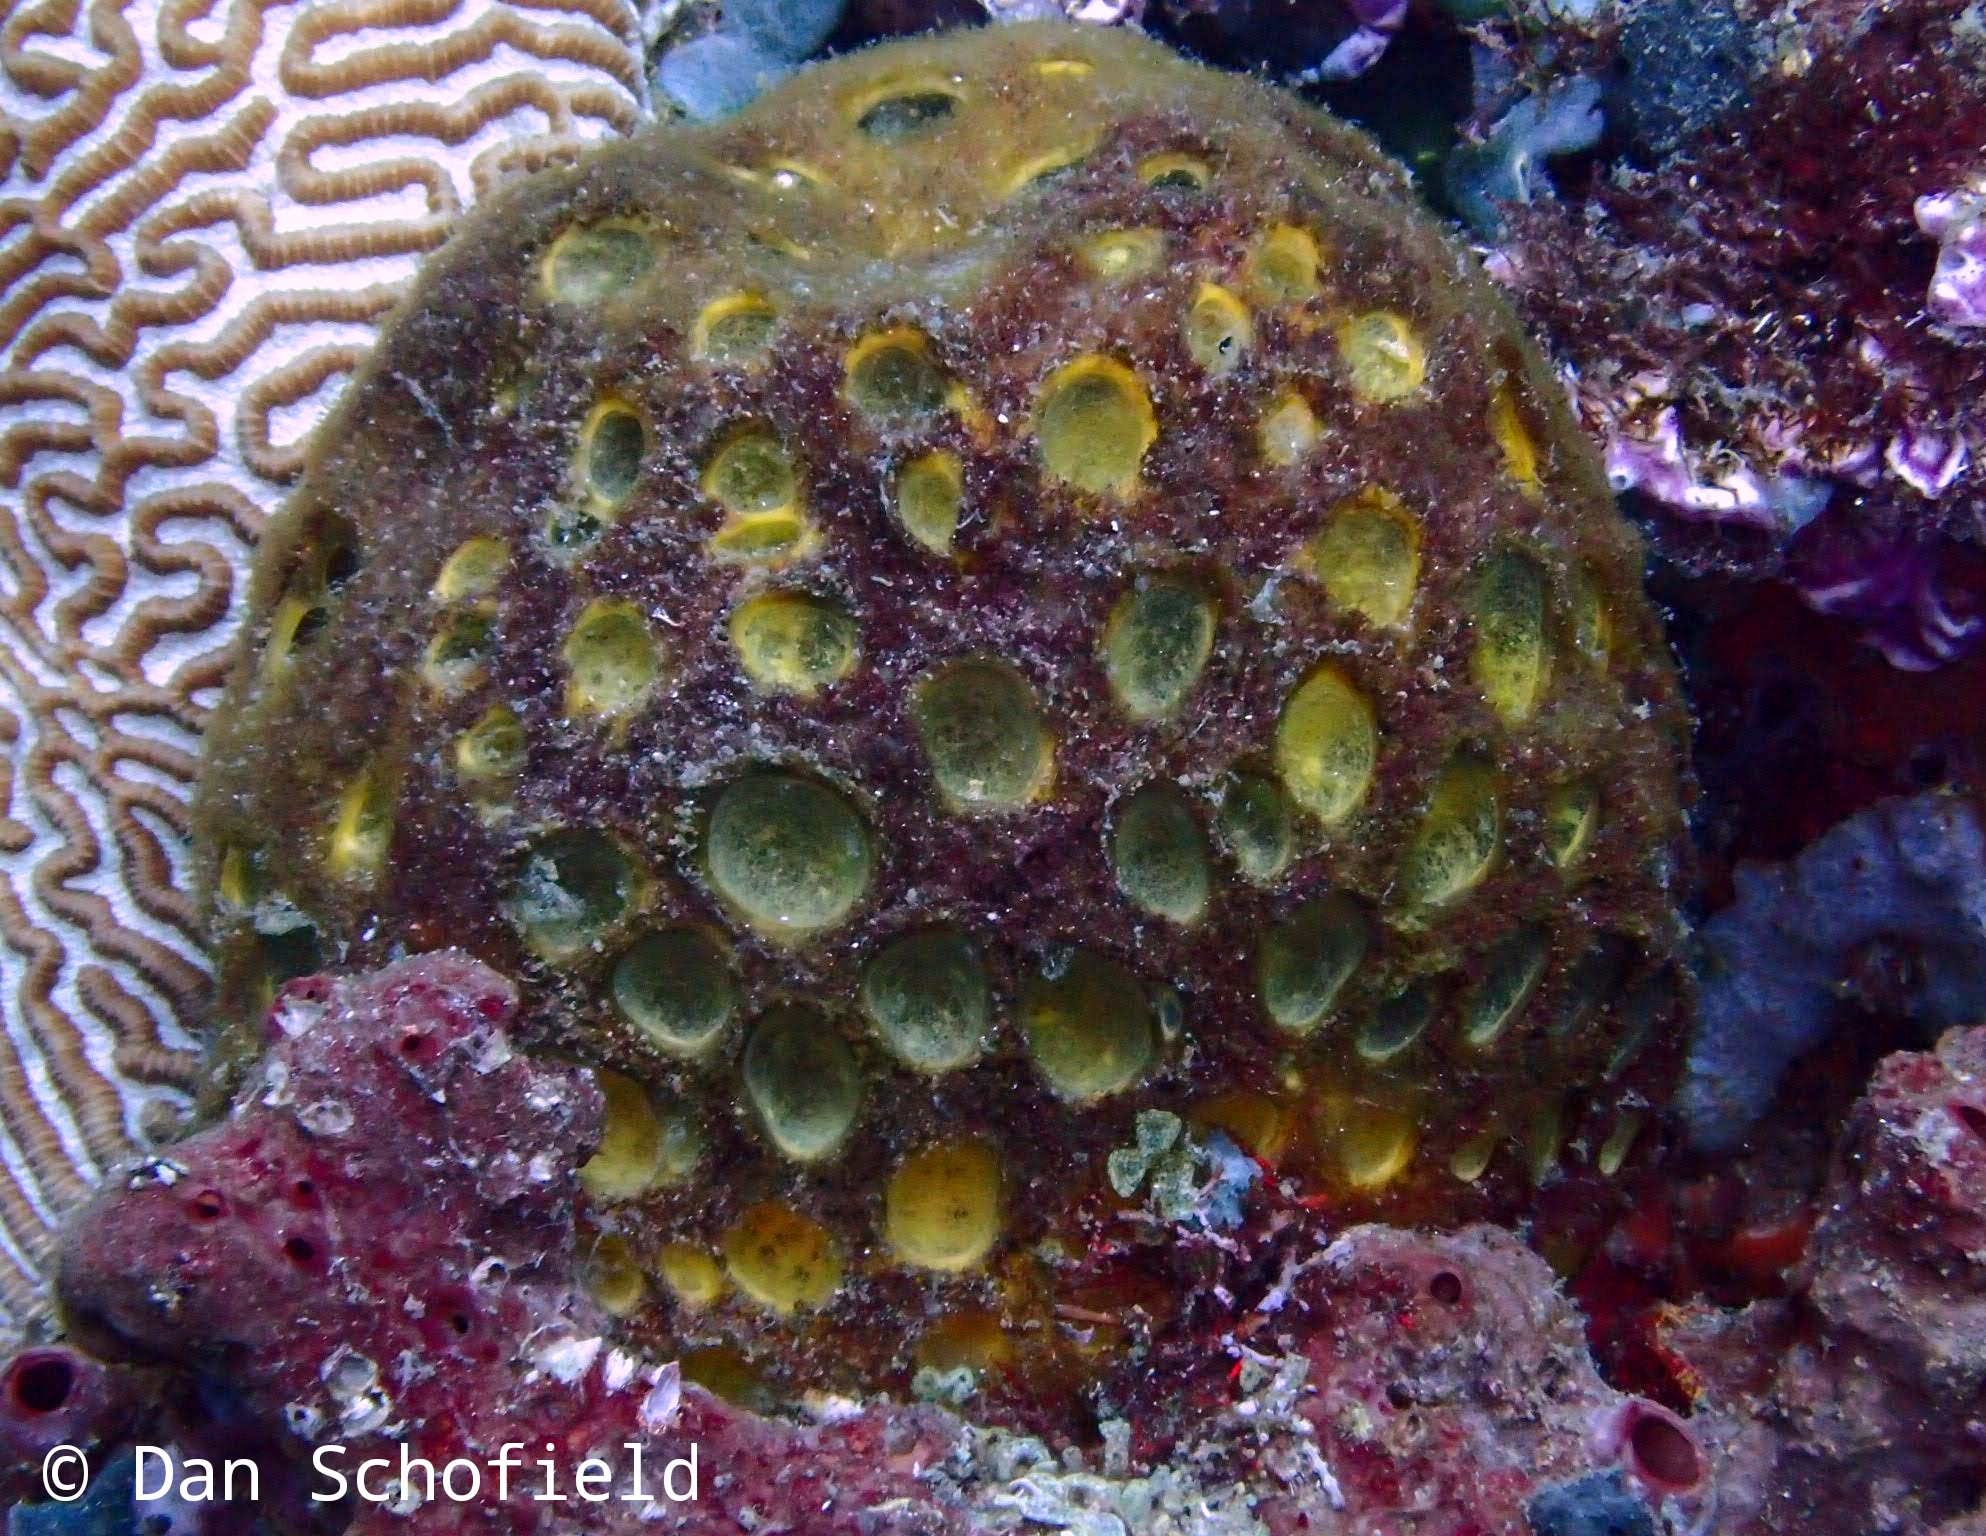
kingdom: Animalia
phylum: Porifera
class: Demospongiae
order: Tetractinellida
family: Tetillidae
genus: Cinachyrella
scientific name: Cinachyrella australiensis
